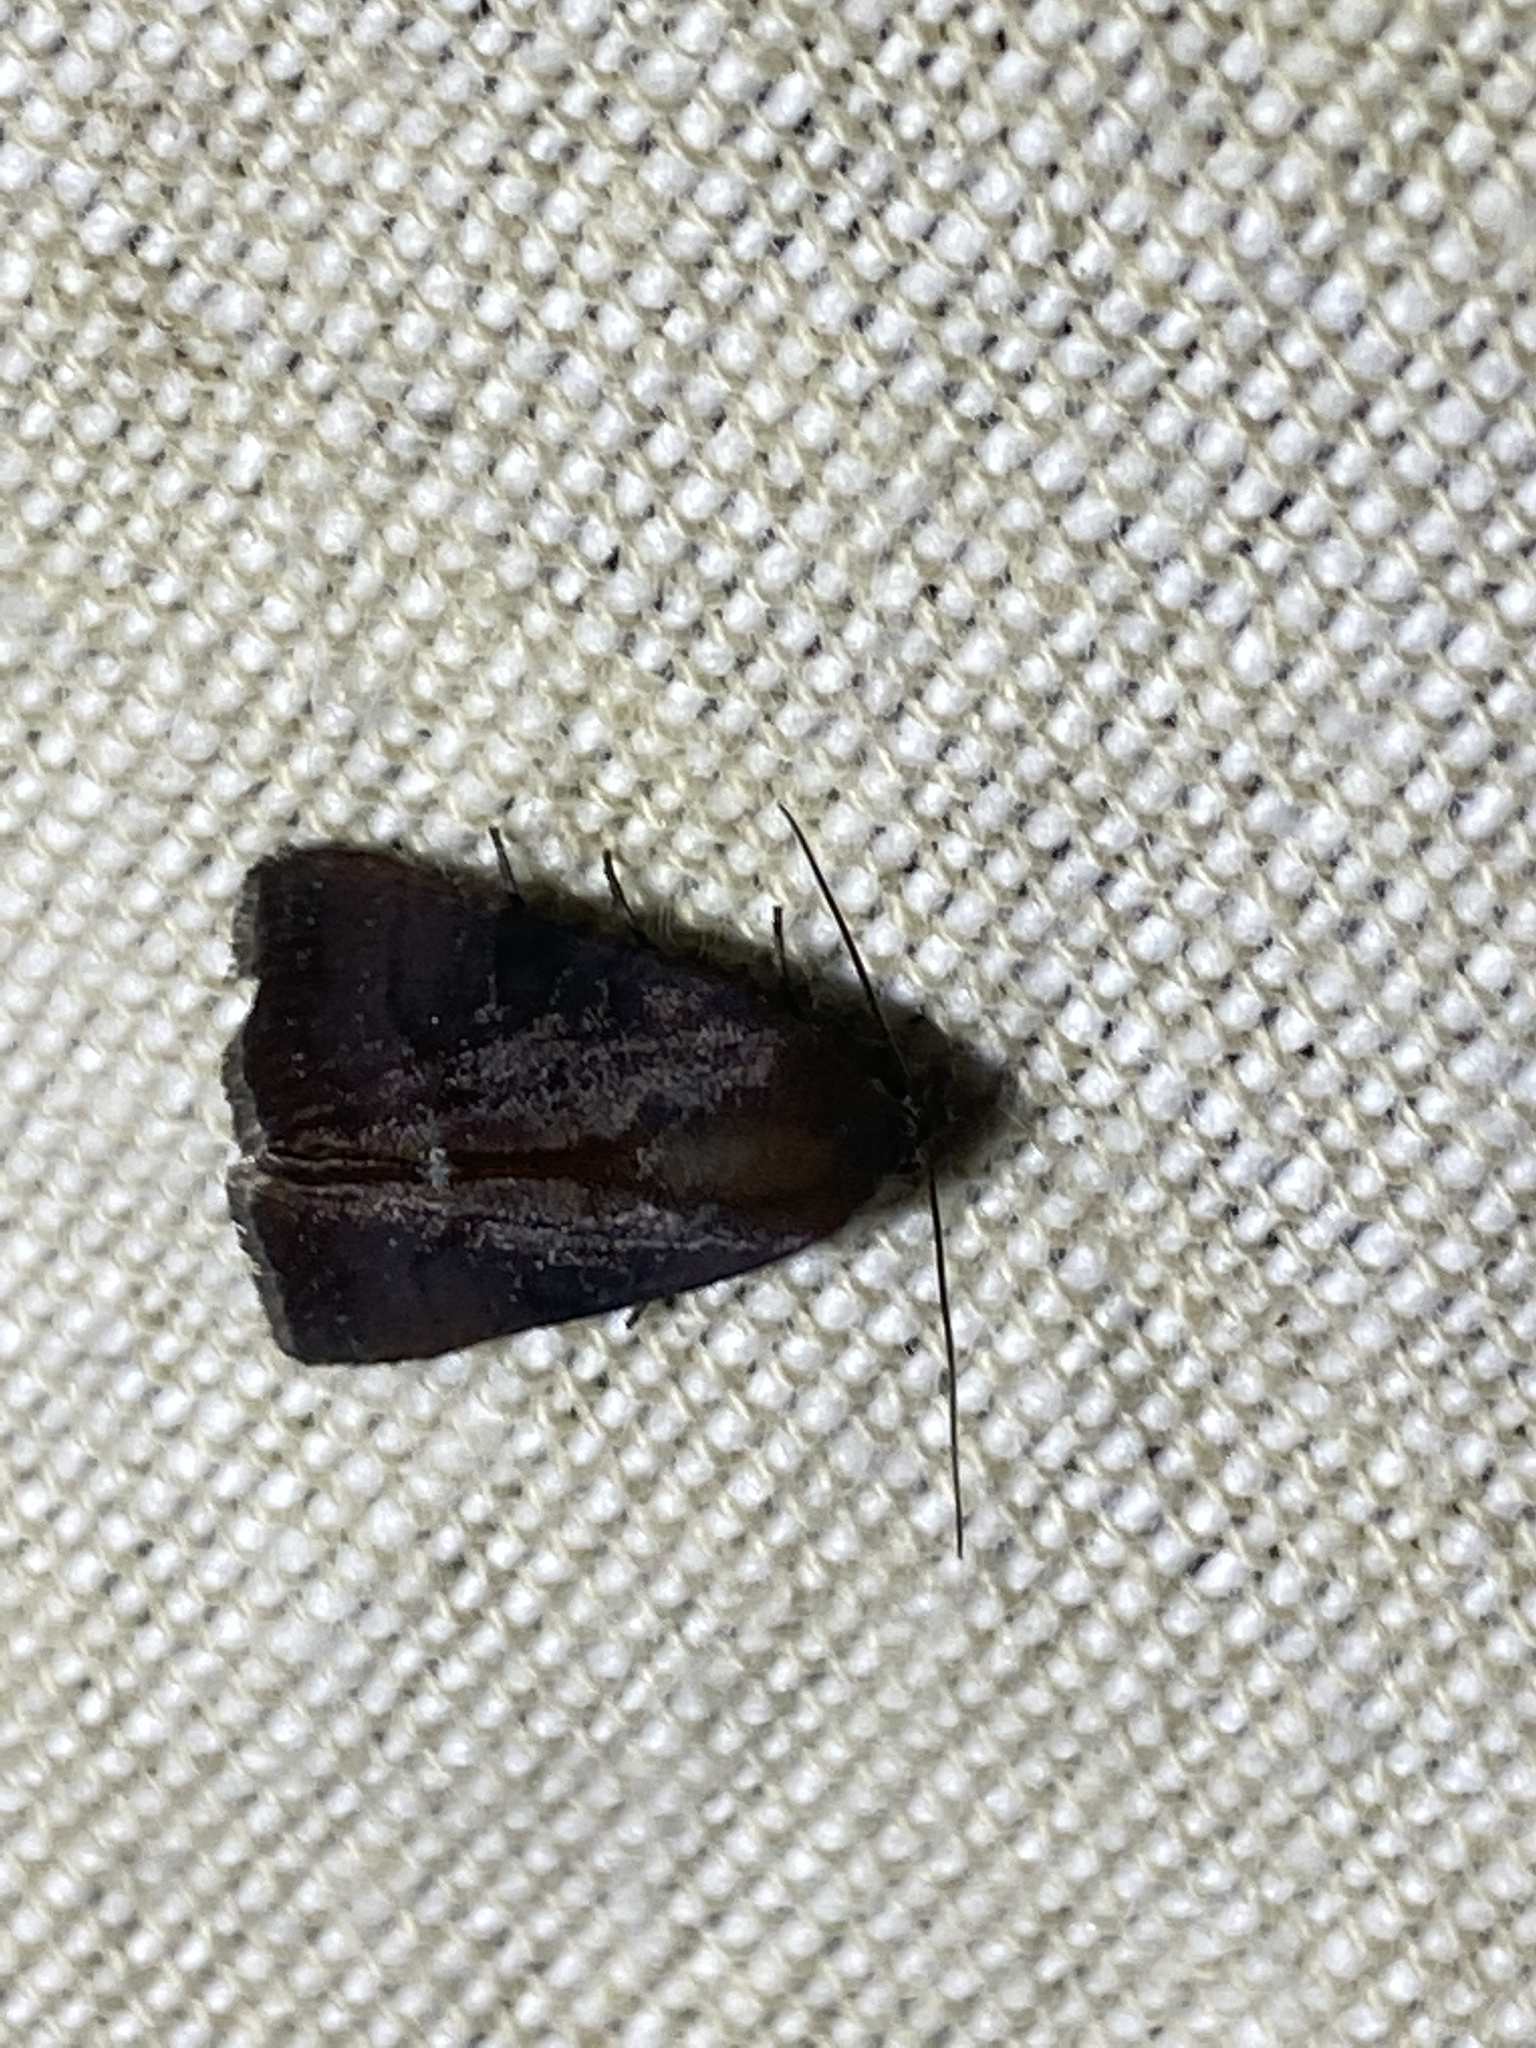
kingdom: Animalia
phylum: Arthropoda
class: Insecta
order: Lepidoptera
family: Noctuidae
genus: Galgula
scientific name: Galgula partita
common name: Wedgeling
